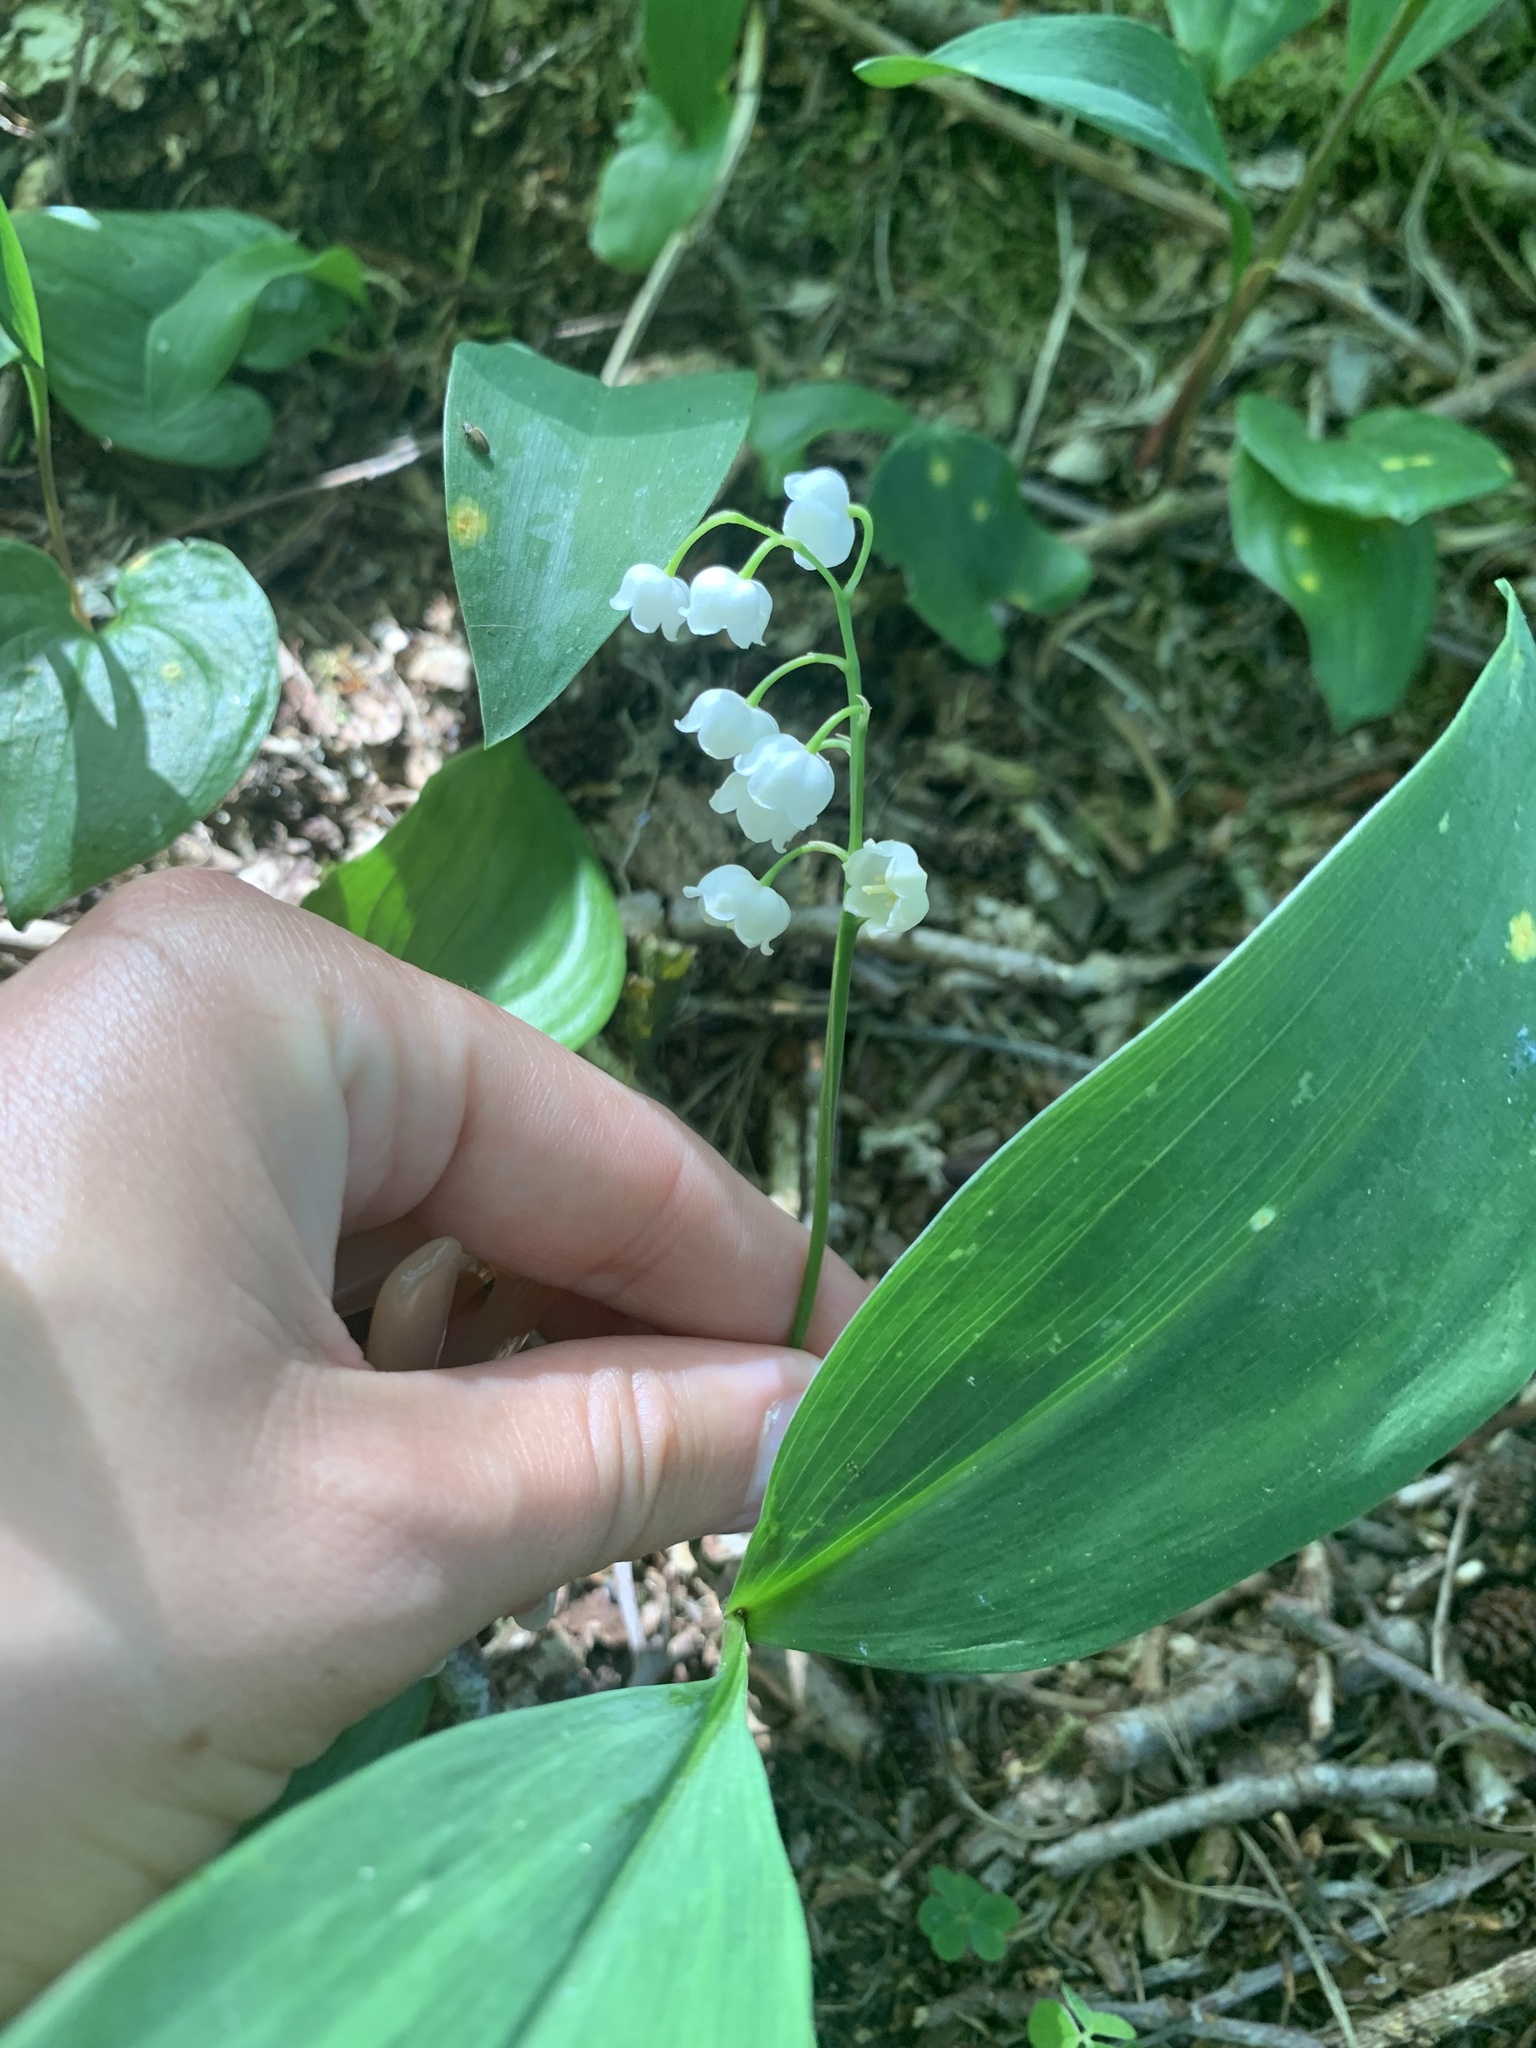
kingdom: Plantae
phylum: Tracheophyta
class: Liliopsida
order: Asparagales
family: Asparagaceae
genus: Convallaria
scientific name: Convallaria majalis
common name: Lily-of-the-valley
